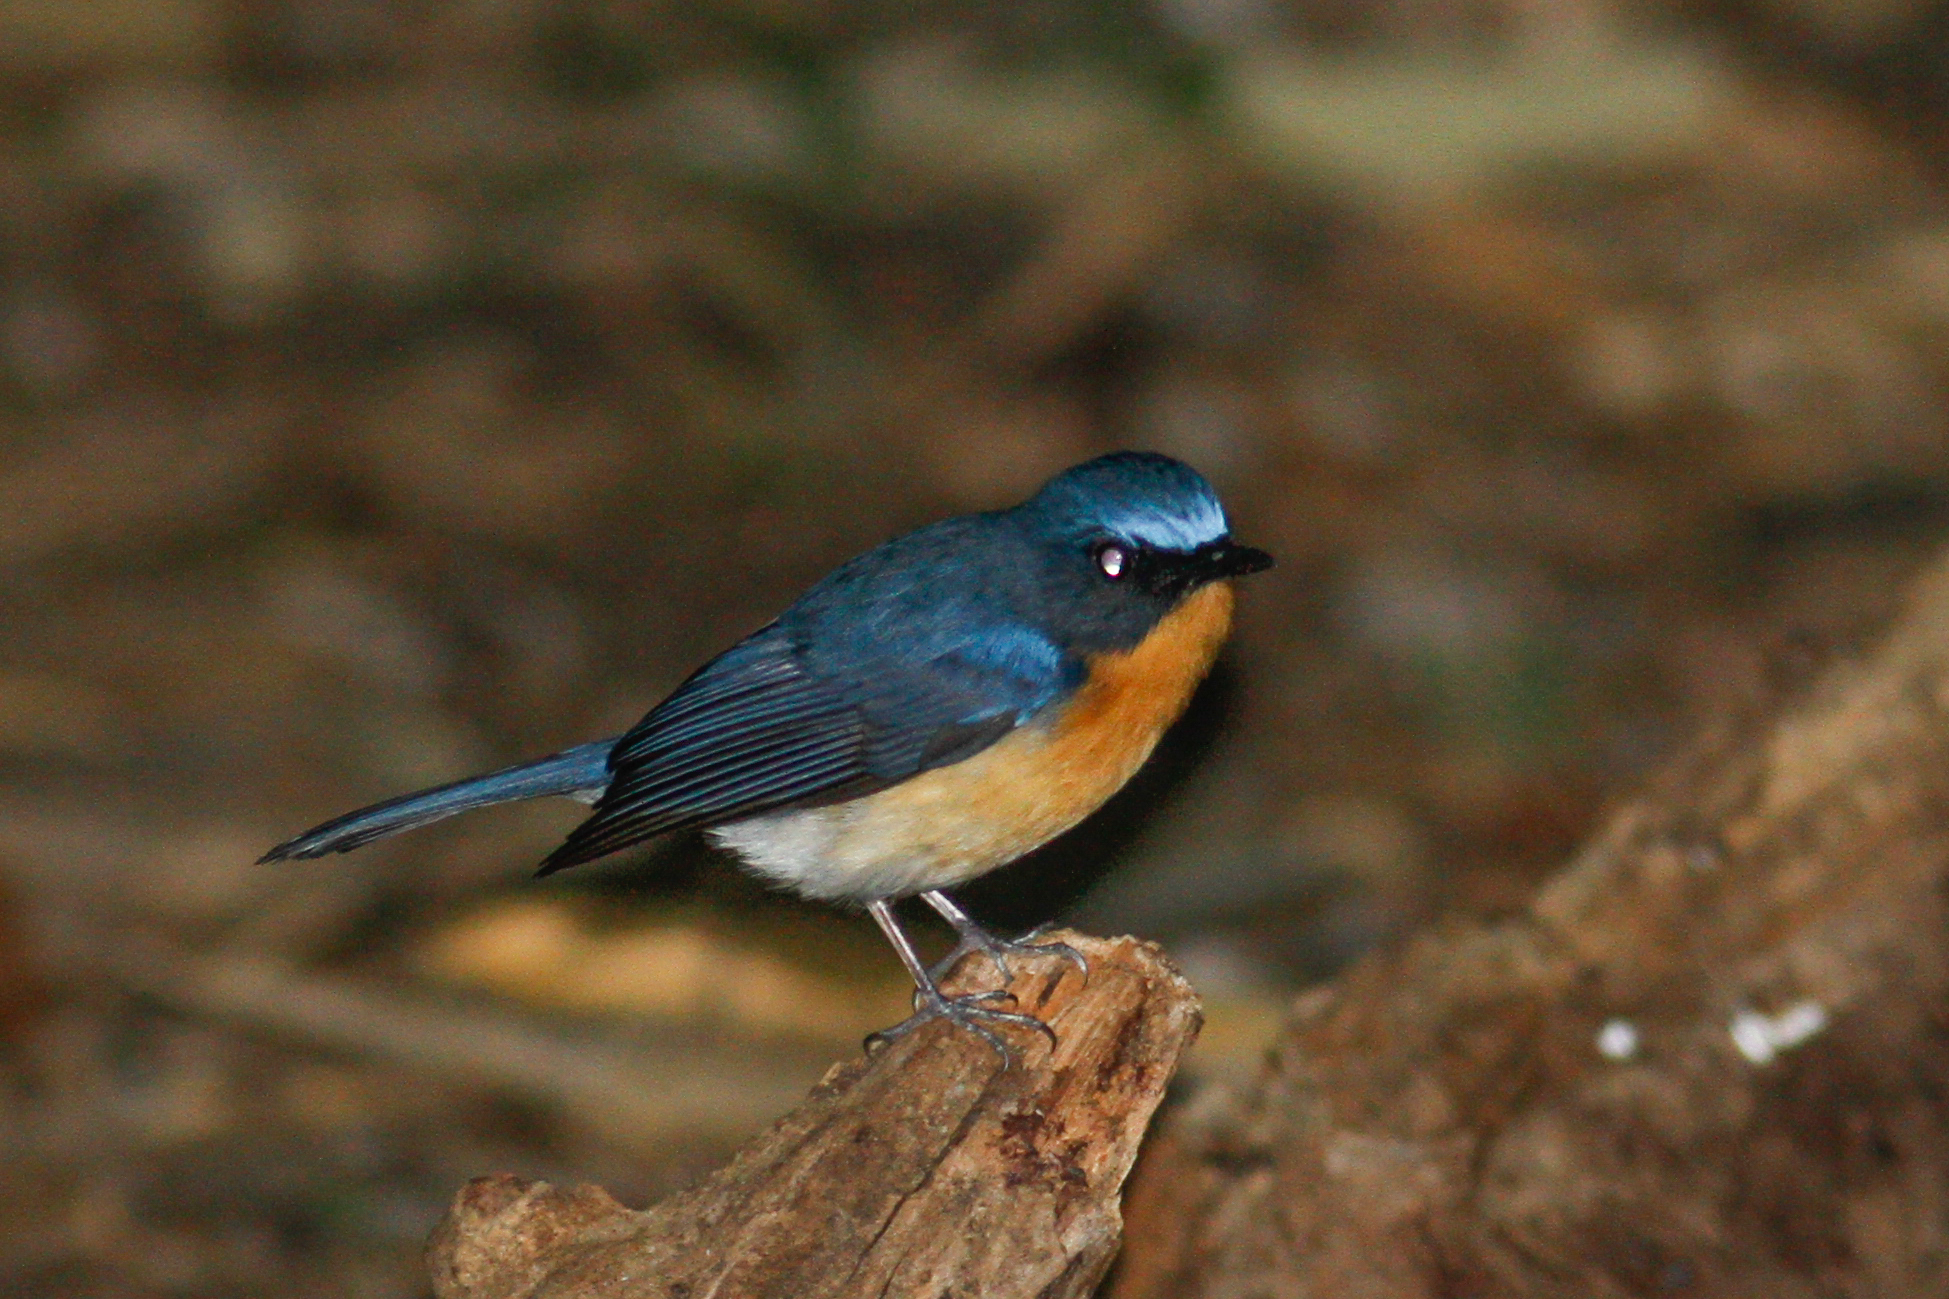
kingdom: Animalia
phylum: Chordata
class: Aves
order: Passeriformes
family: Muscicapidae
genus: Cyornis
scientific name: Cyornis whitei
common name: Hill blue flycatcher
